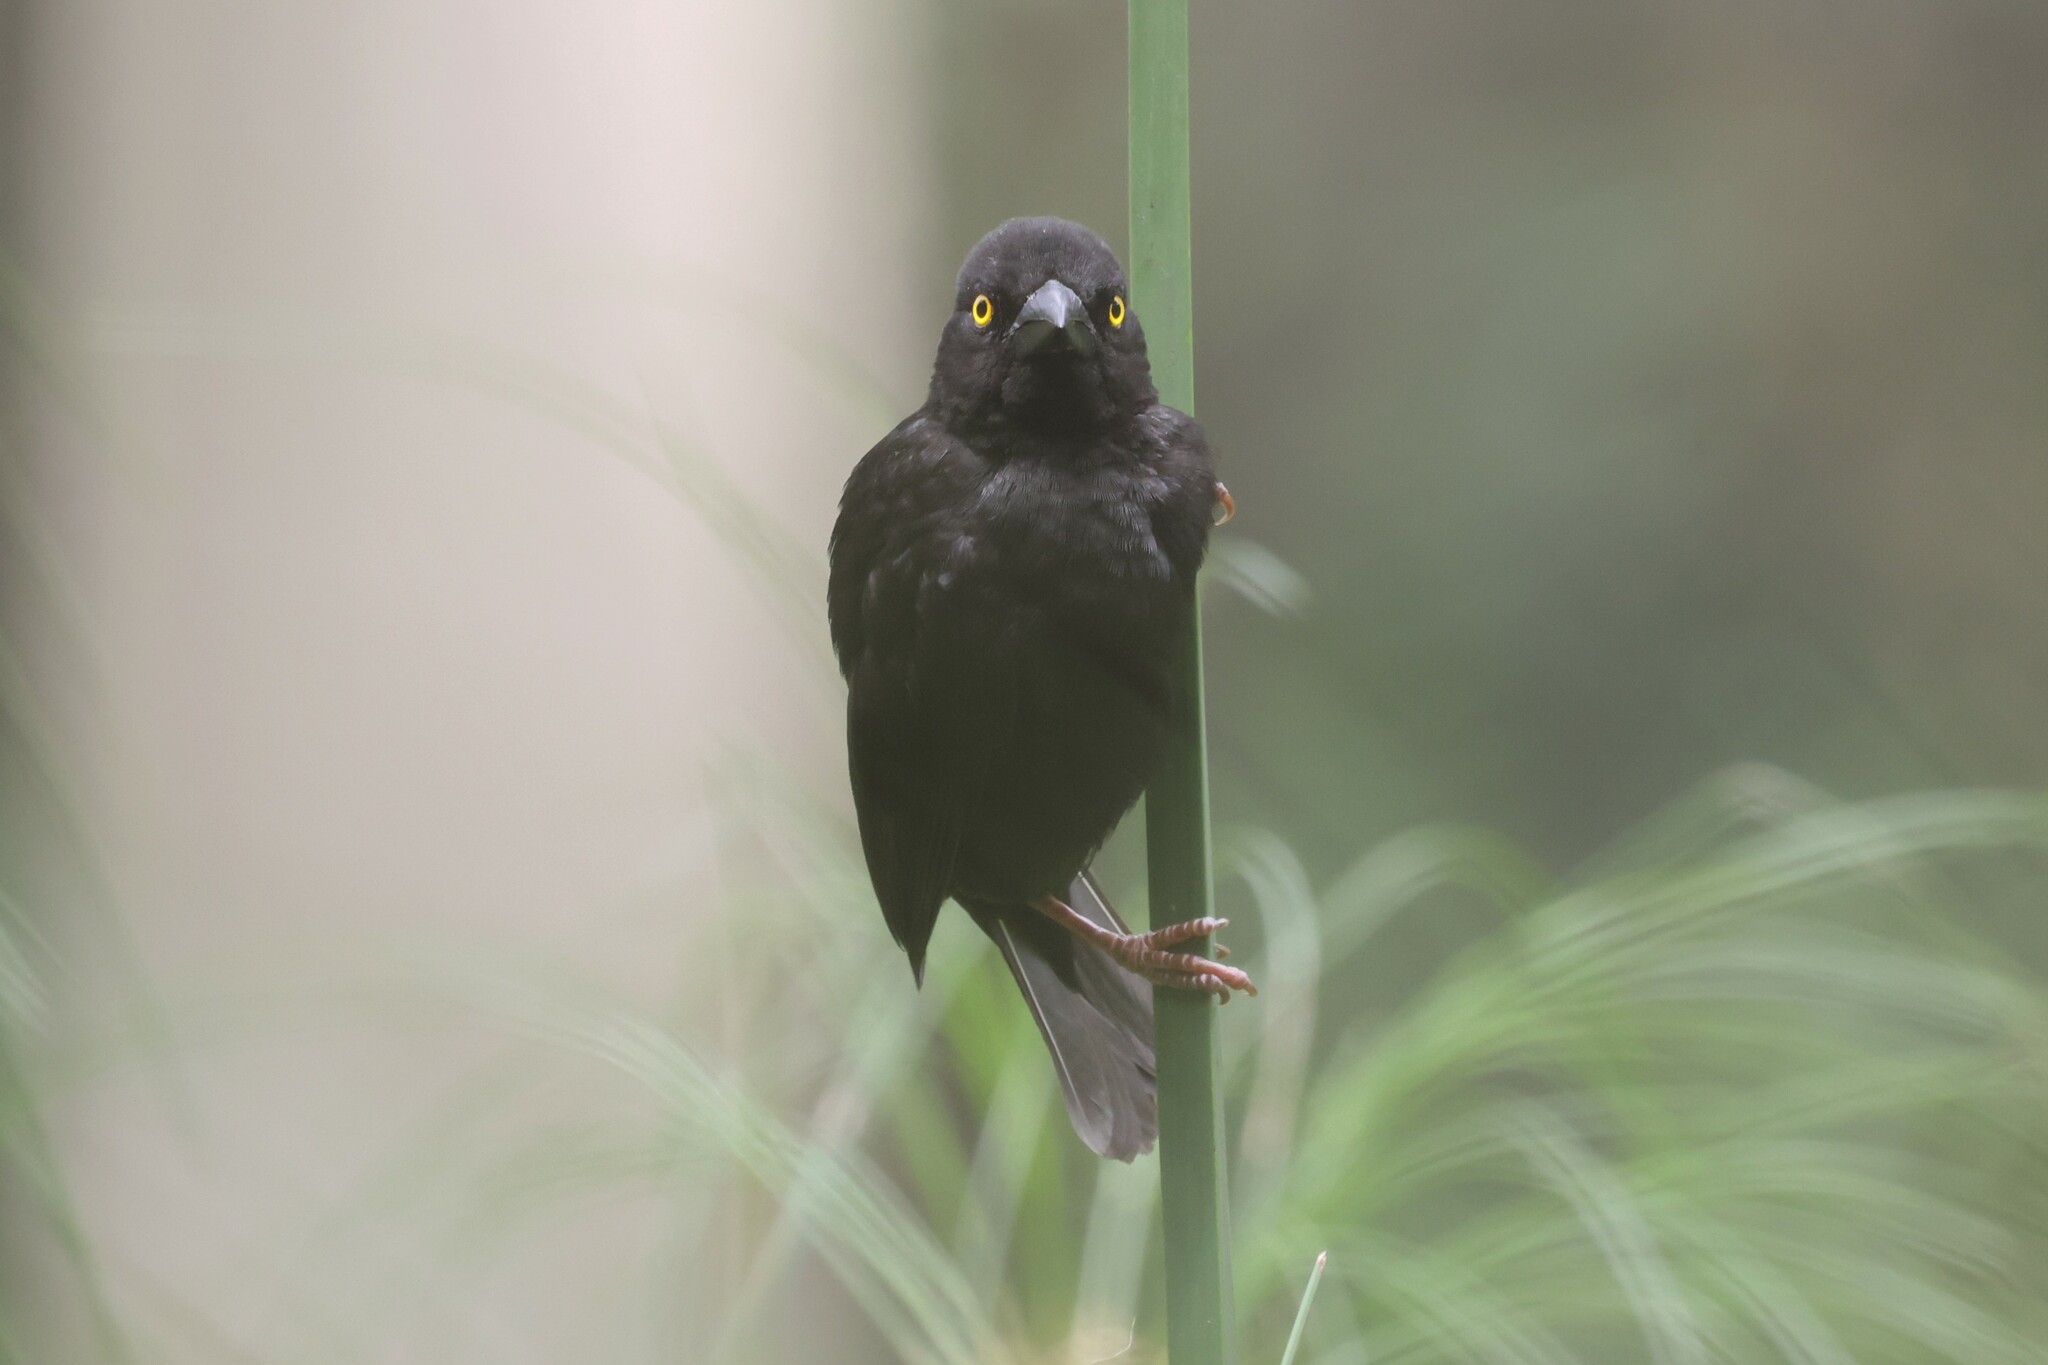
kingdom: Animalia
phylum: Chordata
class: Aves
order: Passeriformes
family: Ploceidae
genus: Ploceus
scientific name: Ploceus nigerrimus
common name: Vieillot's black weaver
